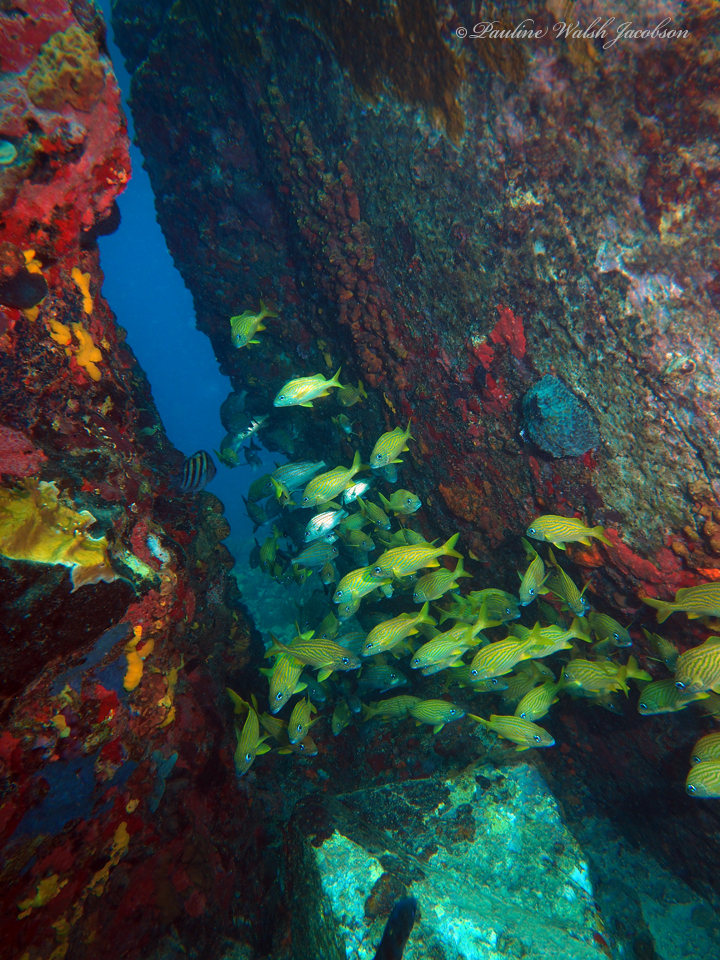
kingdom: Animalia
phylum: Chordata
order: Perciformes
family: Haemulidae
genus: Haemulon
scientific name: Haemulon flavolineatum
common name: French grunt
